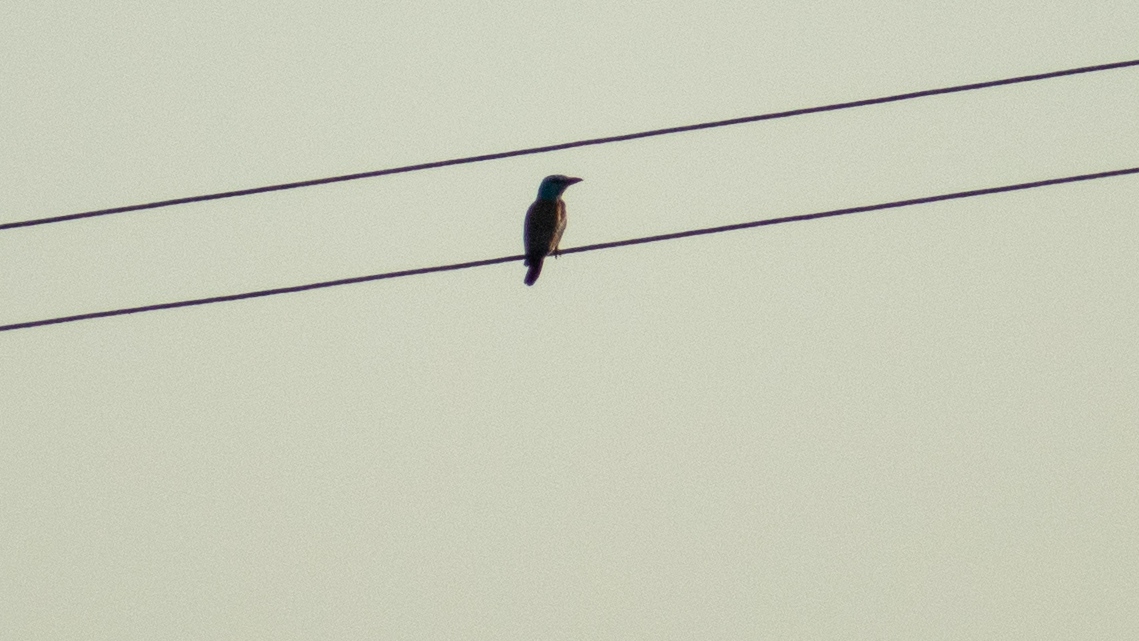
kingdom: Animalia
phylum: Chordata
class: Aves
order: Coraciiformes
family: Coraciidae
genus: Coracias
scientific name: Coracias garrulus
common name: European roller
